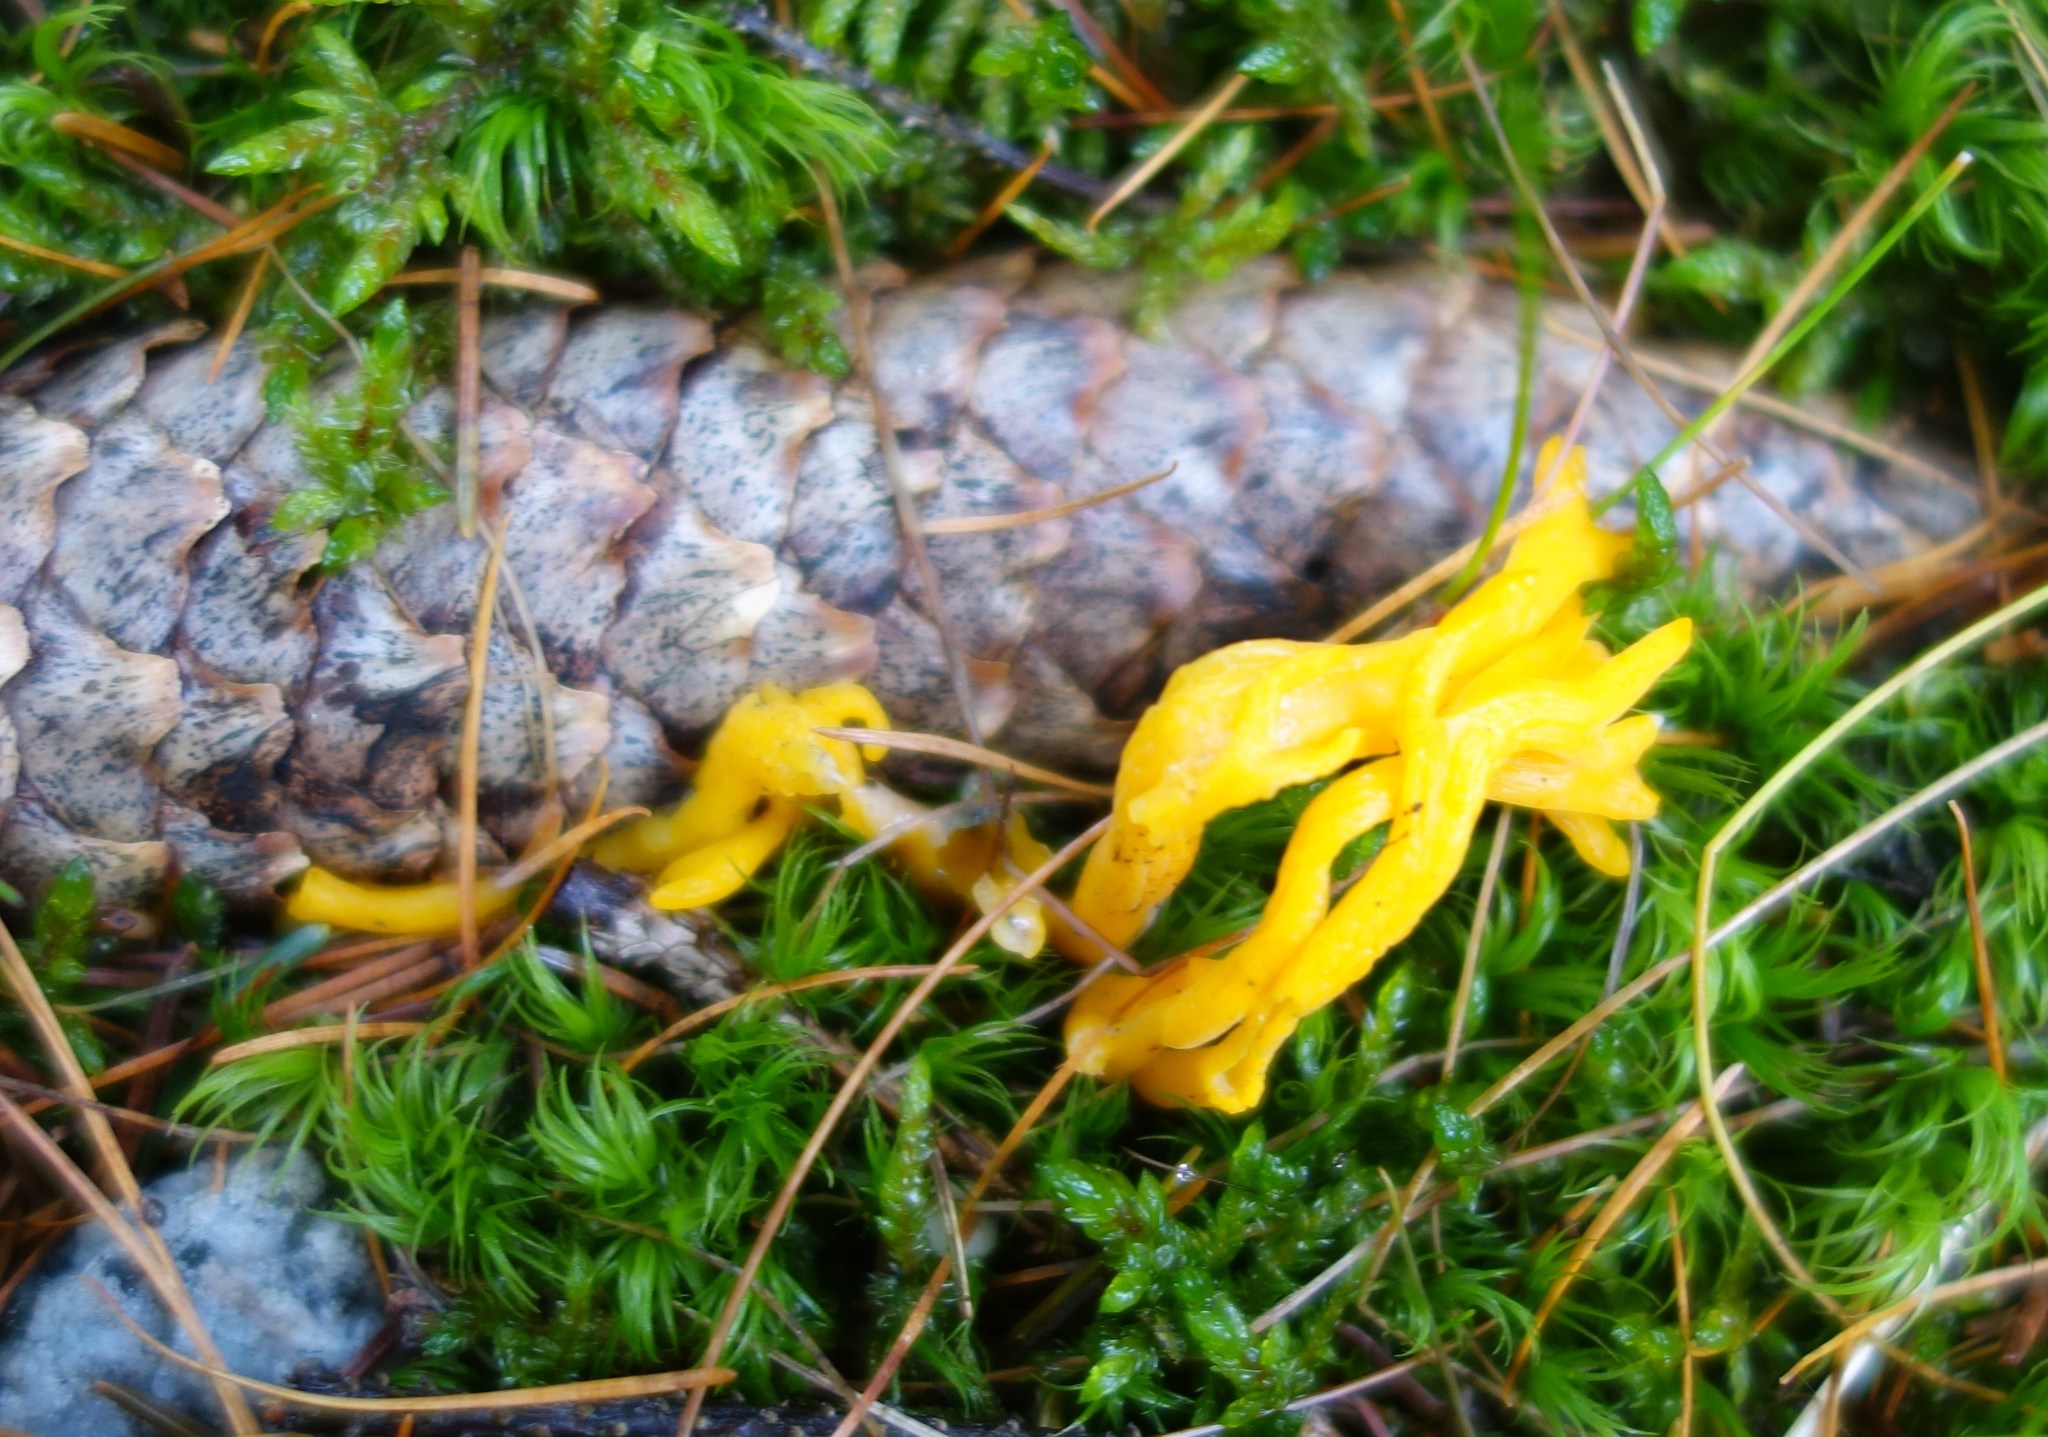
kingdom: Fungi
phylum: Basidiomycota
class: Dacrymycetes
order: Dacrymycetales
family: Dacrymycetaceae
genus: Calocera
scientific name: Calocera viscosa
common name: Yellow stagshorn
